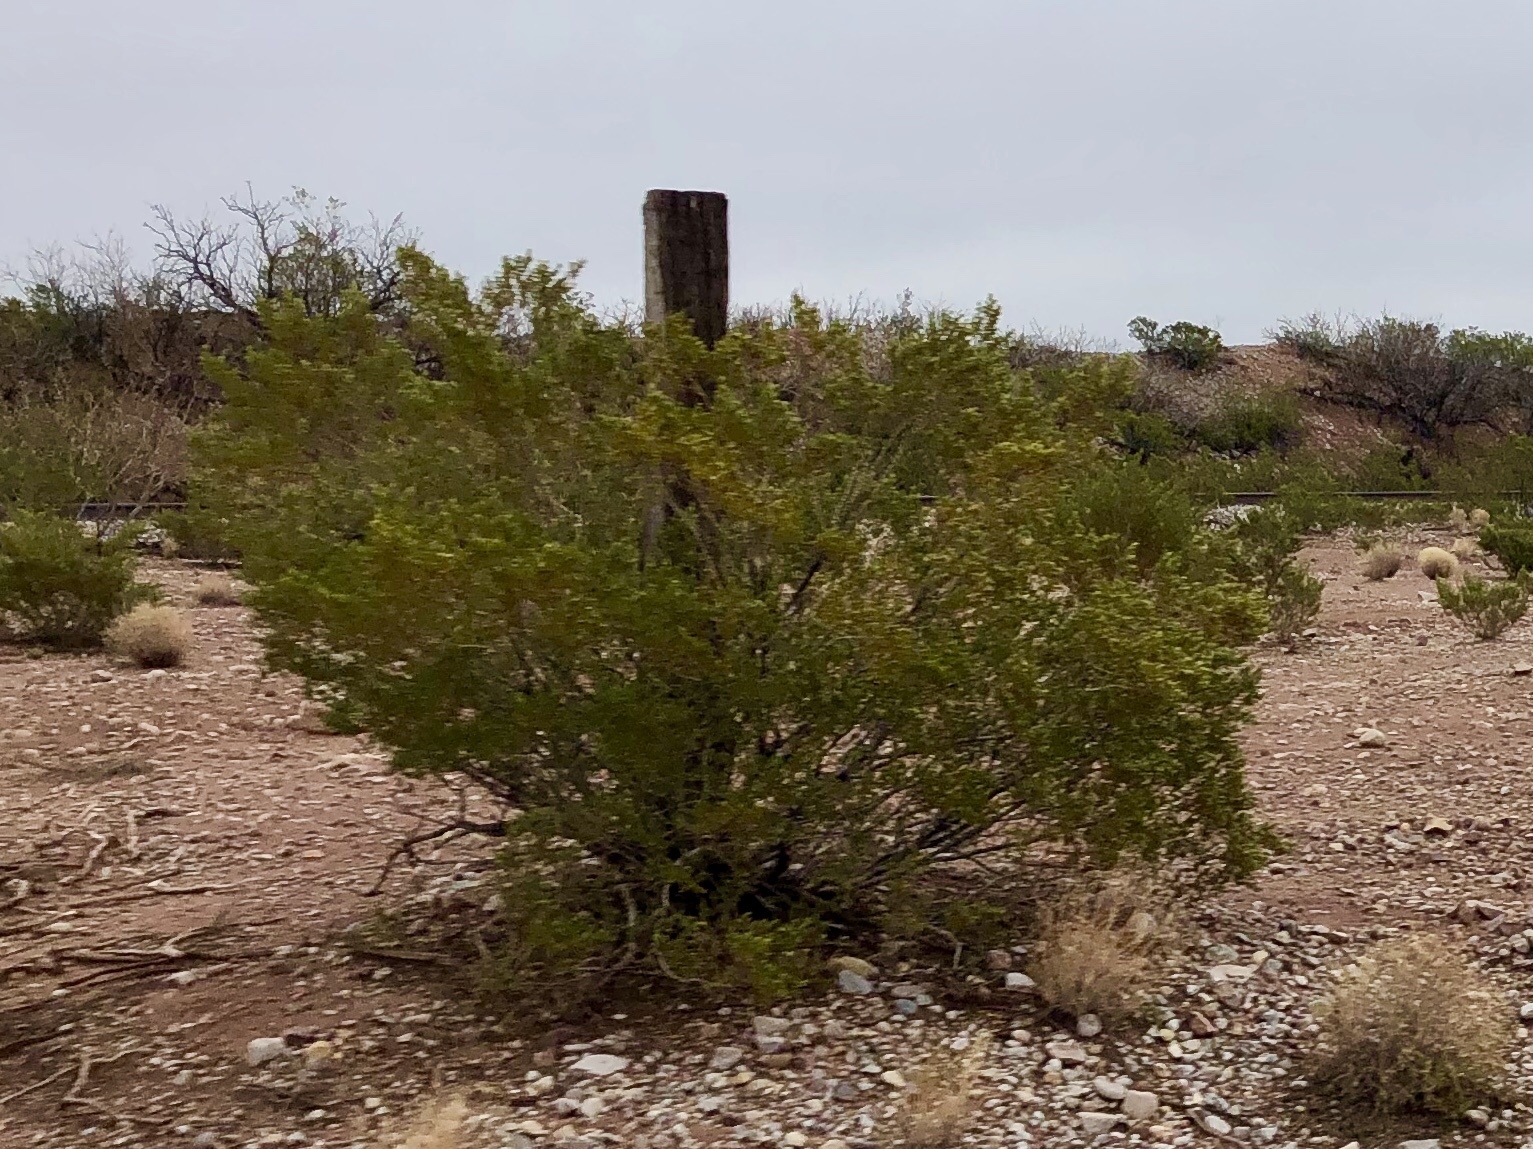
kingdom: Plantae
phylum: Tracheophyta
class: Magnoliopsida
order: Zygophyllales
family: Zygophyllaceae
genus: Larrea
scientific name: Larrea tridentata
